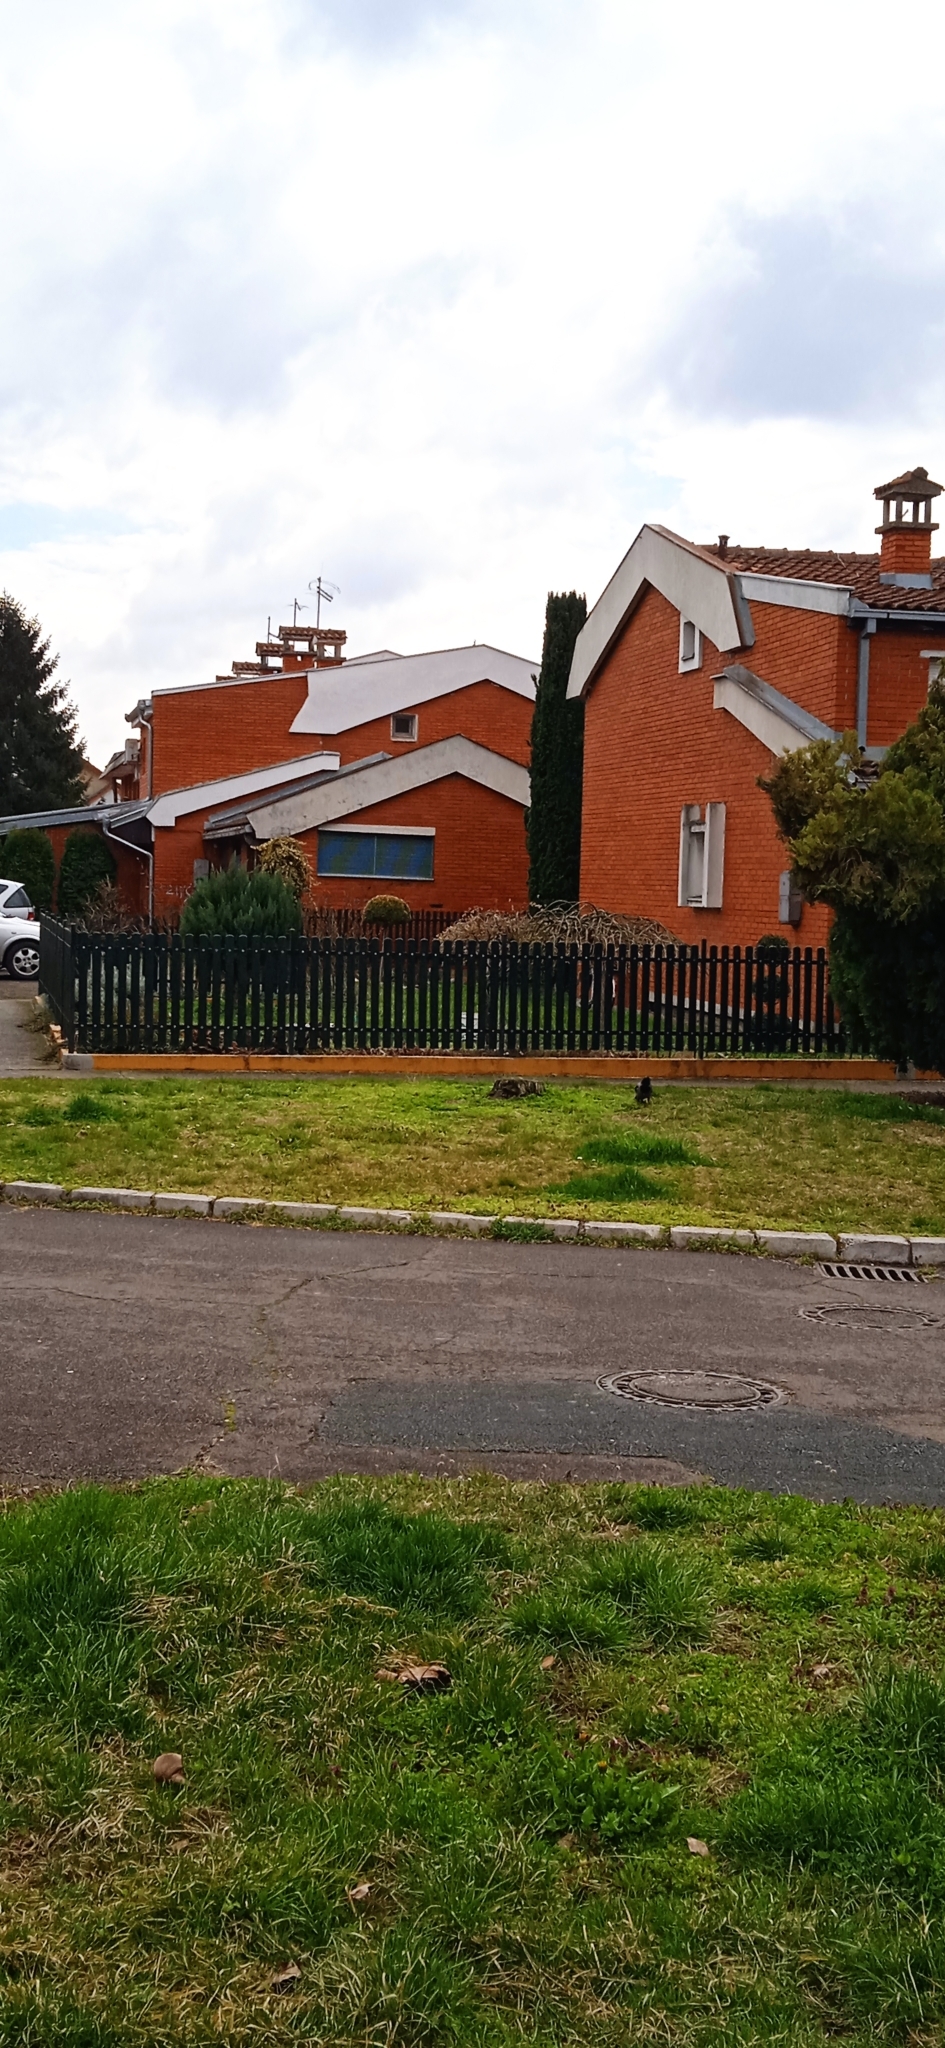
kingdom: Animalia
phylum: Chordata
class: Aves
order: Passeriformes
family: Corvidae
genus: Corvus
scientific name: Corvus cornix
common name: Hooded crow
